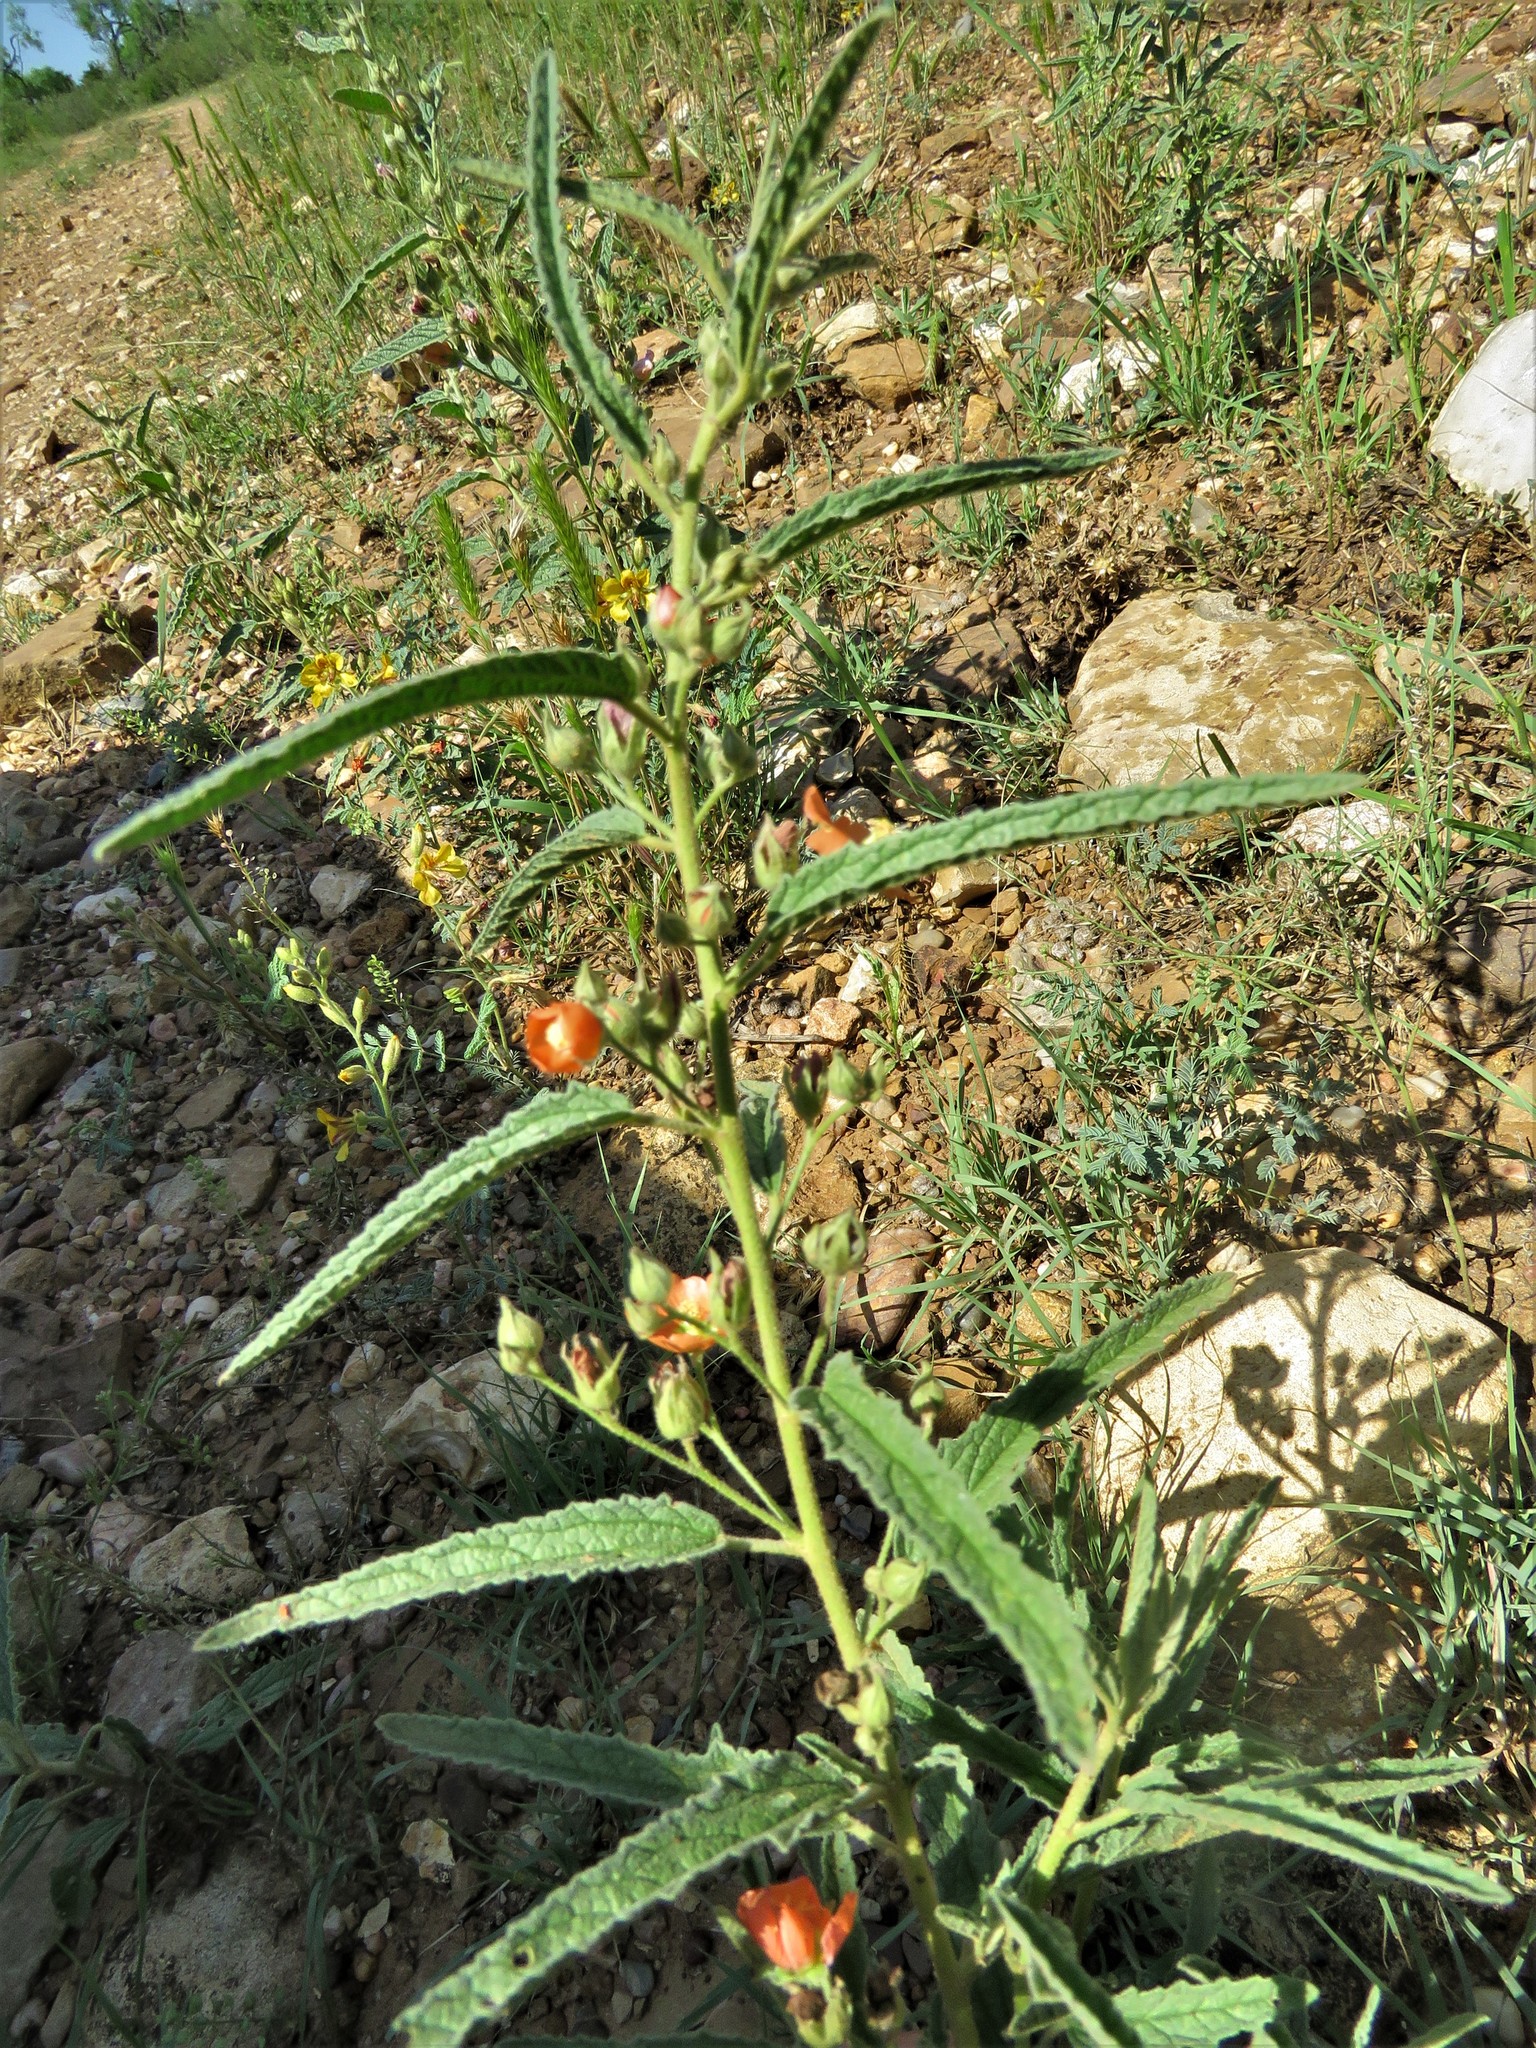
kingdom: Plantae
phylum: Tracheophyta
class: Magnoliopsida
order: Malvales
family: Malvaceae
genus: Sphaeralcea
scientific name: Sphaeralcea angustifolia
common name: Copper globe-mallow
